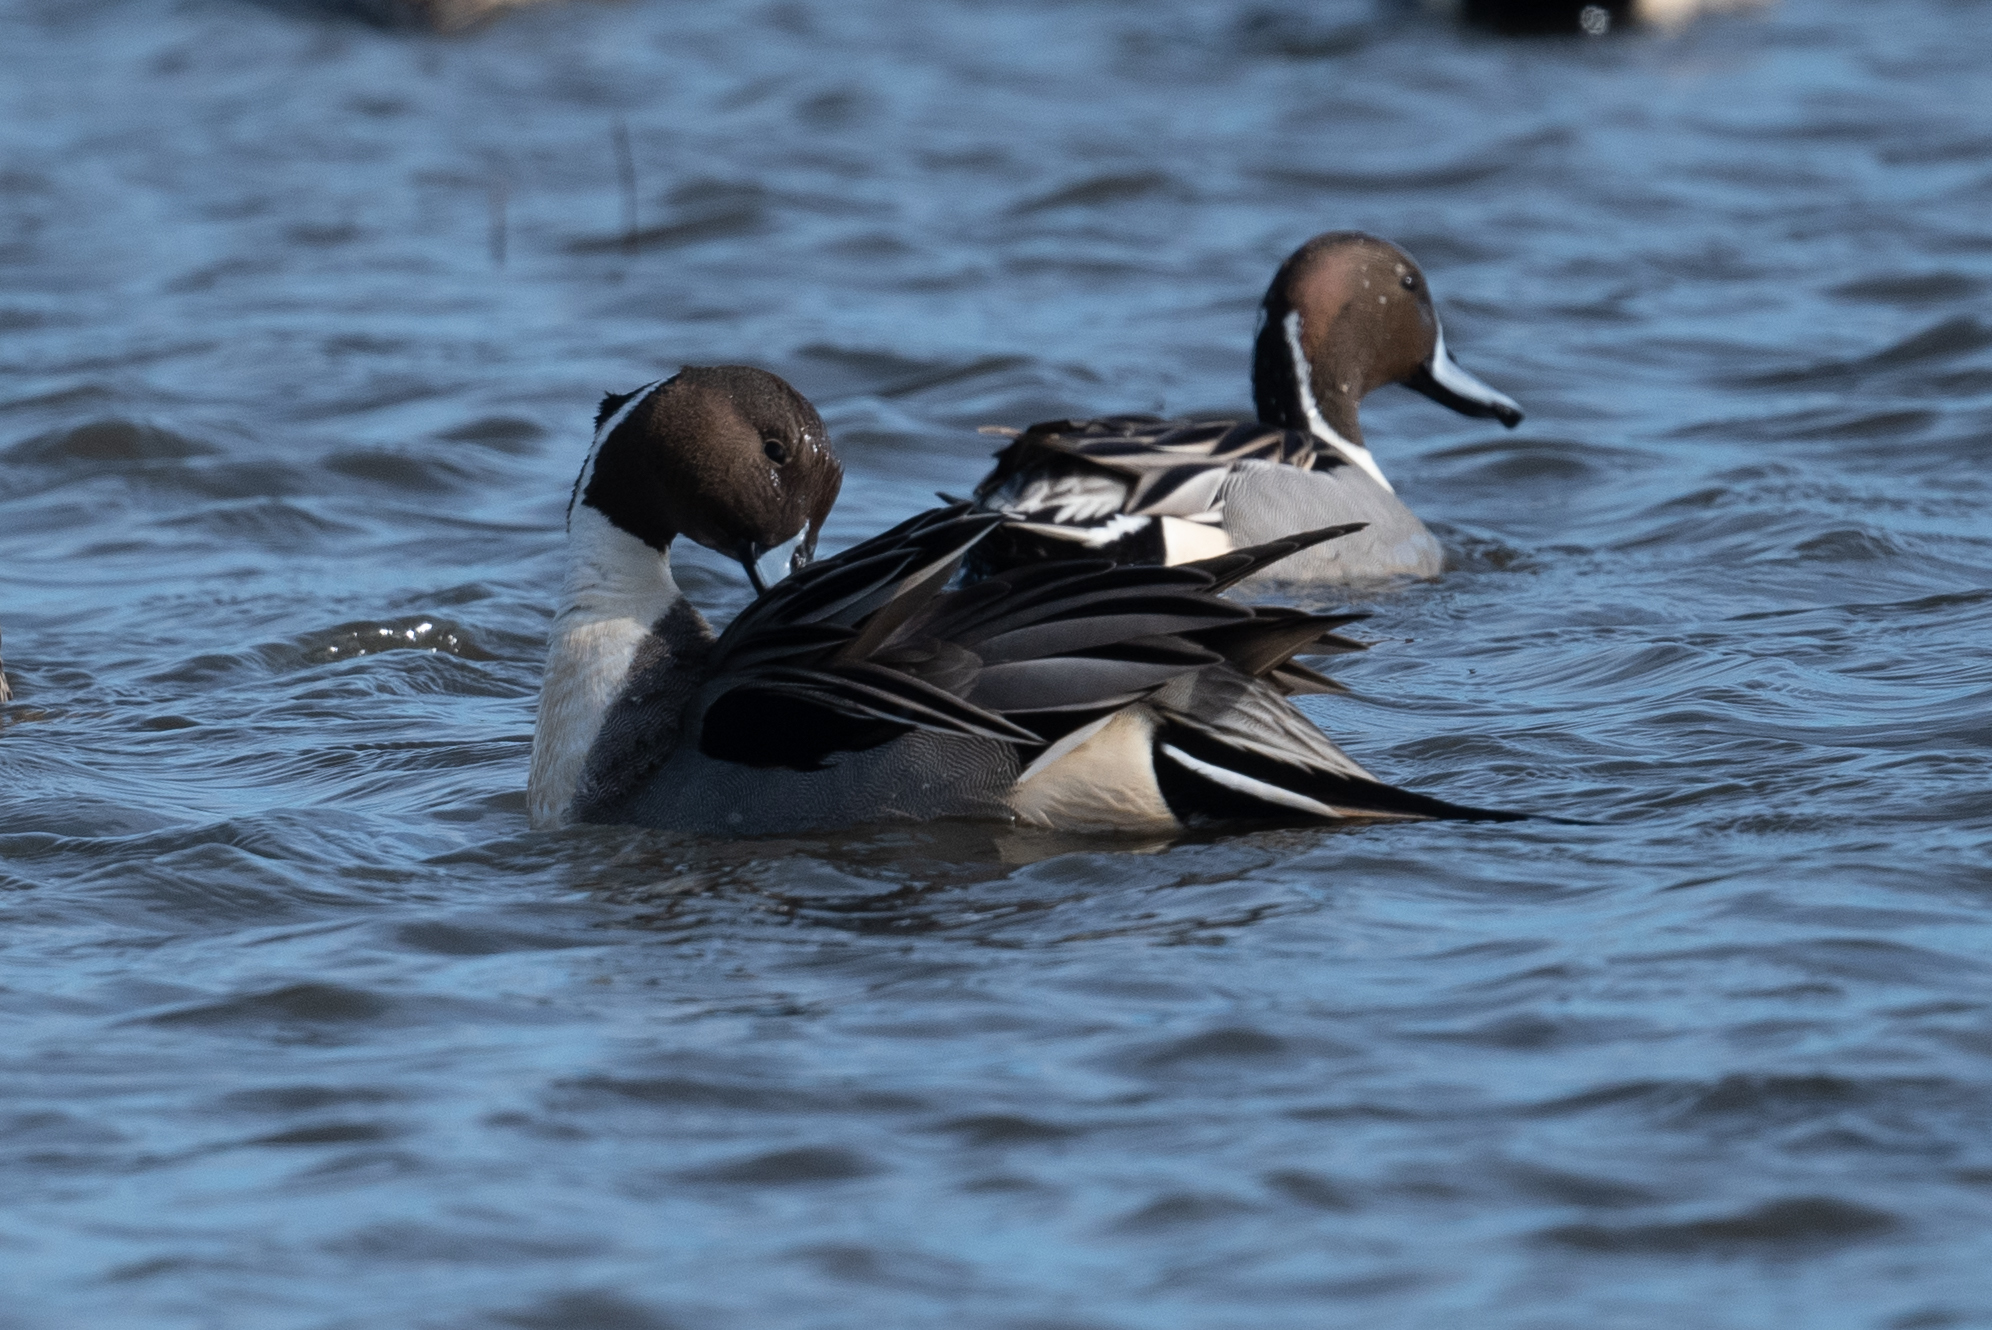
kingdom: Animalia
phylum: Chordata
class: Aves
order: Anseriformes
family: Anatidae
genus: Anas
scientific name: Anas acuta
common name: Northern pintail
